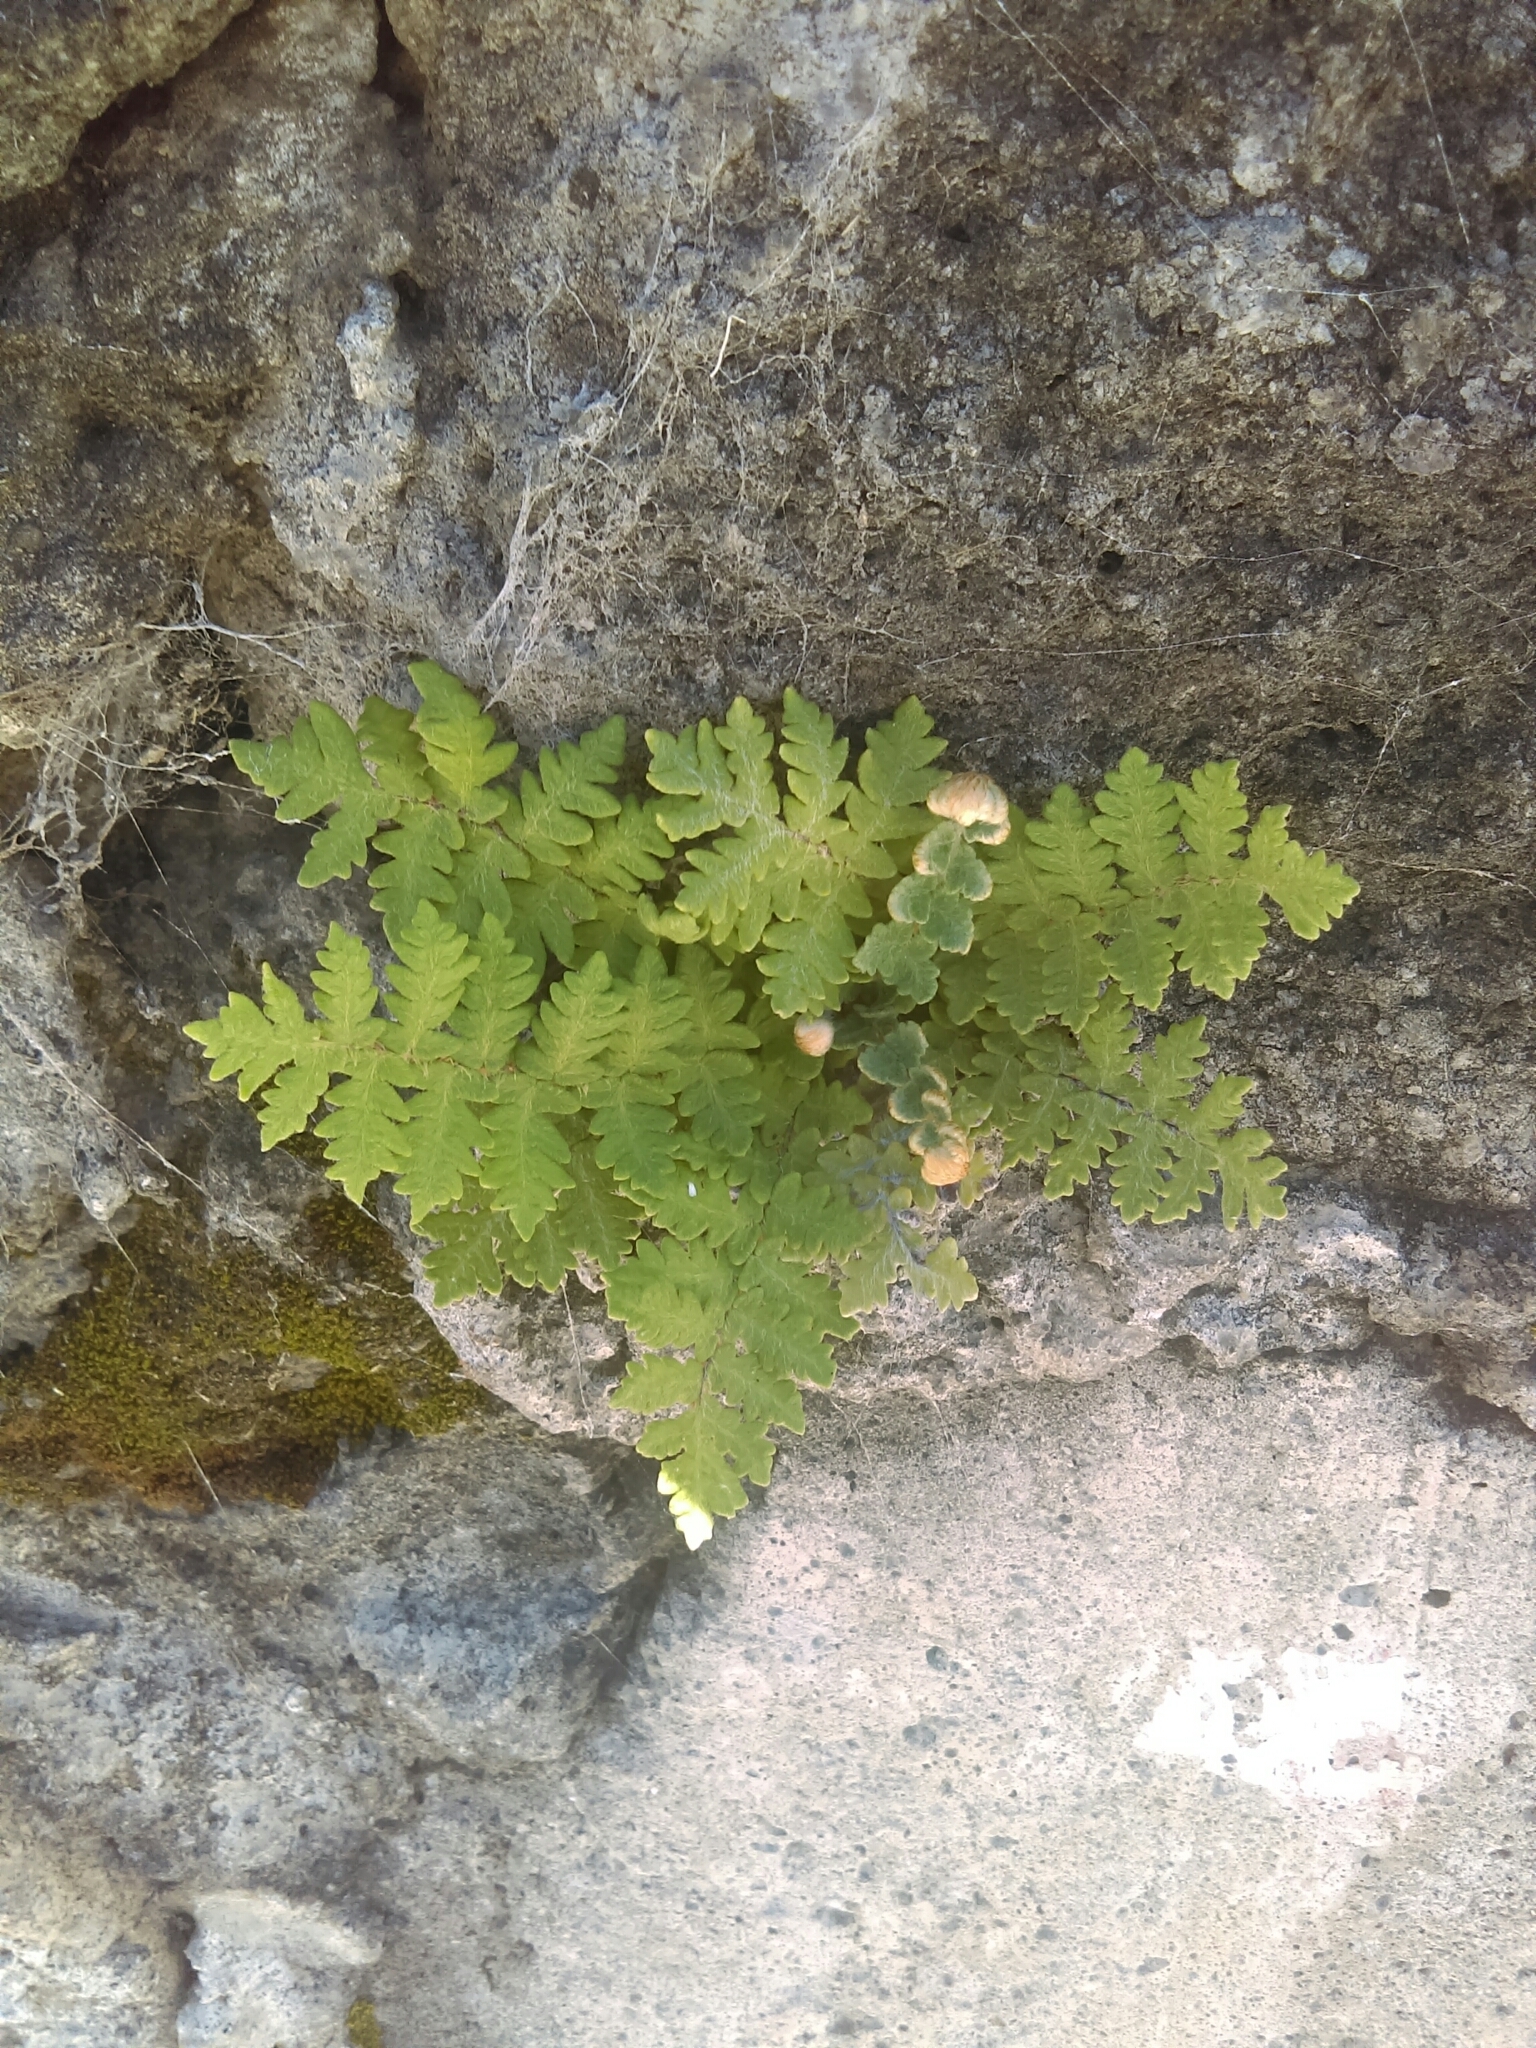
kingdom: Plantae
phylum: Tracheophyta
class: Polypodiopsida
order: Polypodiales
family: Pteridaceae
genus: Notholaena
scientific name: Notholaena brachypus
